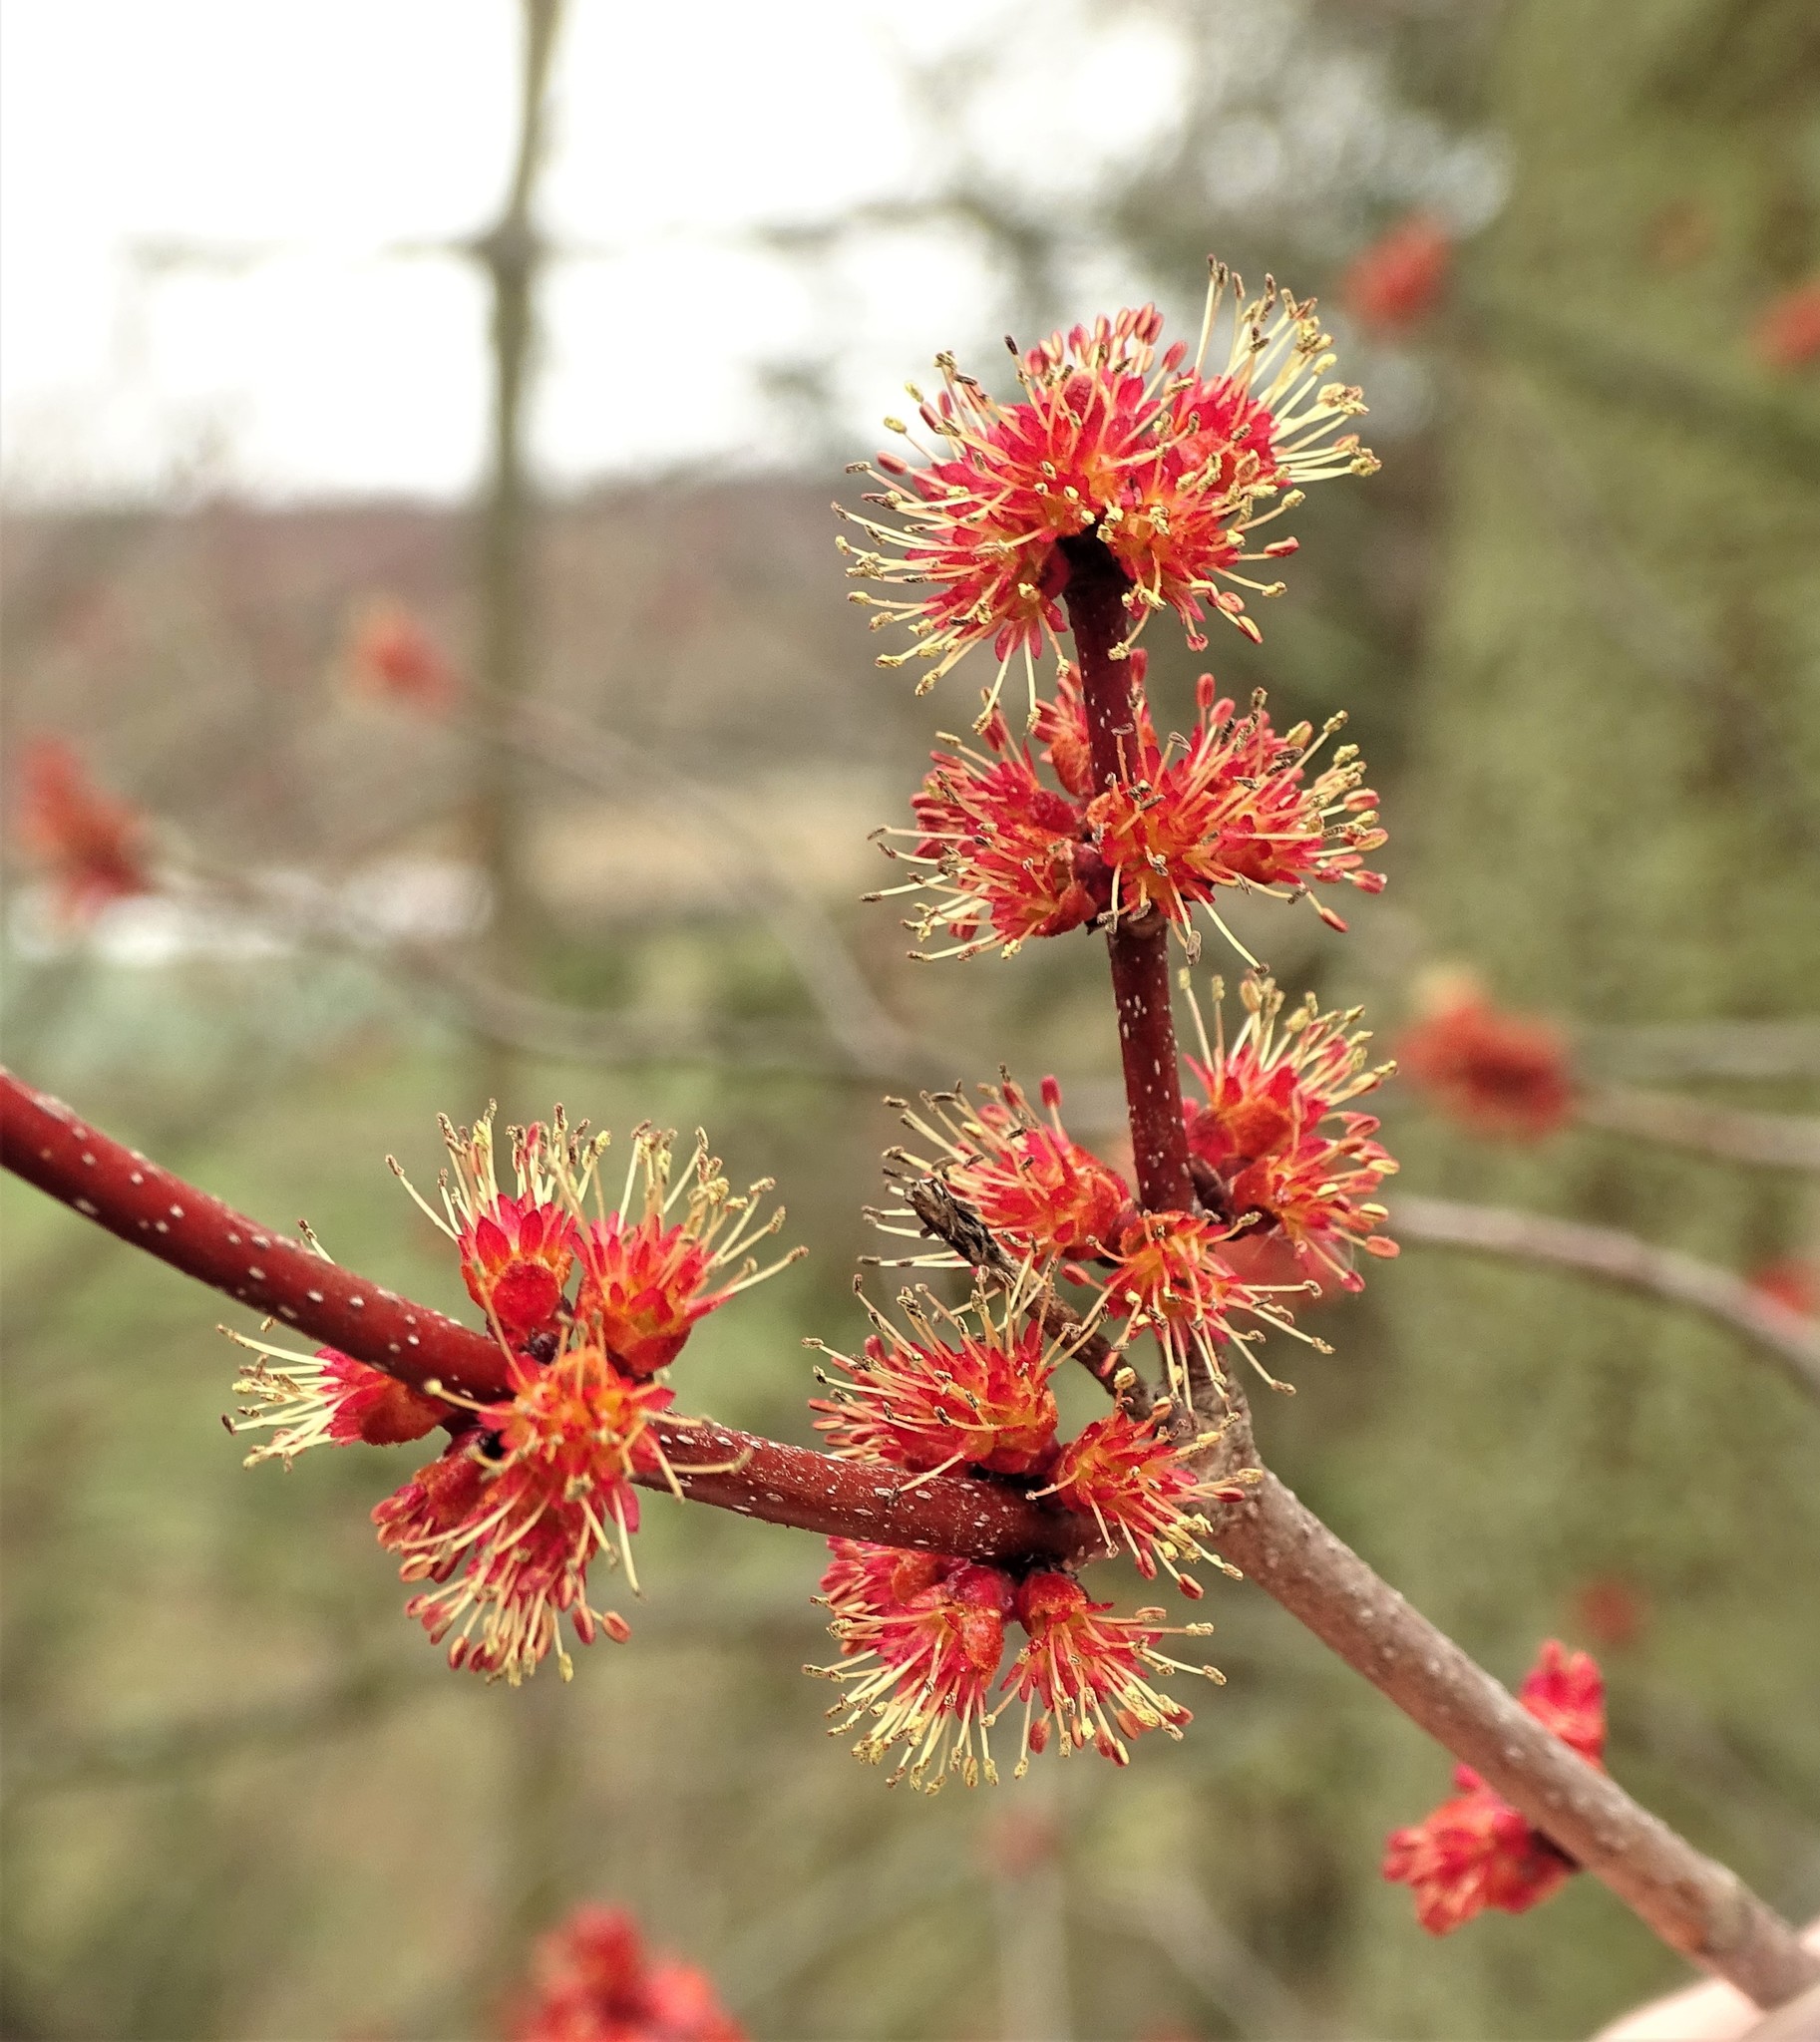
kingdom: Plantae
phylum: Tracheophyta
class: Magnoliopsida
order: Sapindales
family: Sapindaceae
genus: Acer
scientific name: Acer saccharinum
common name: Silver maple
